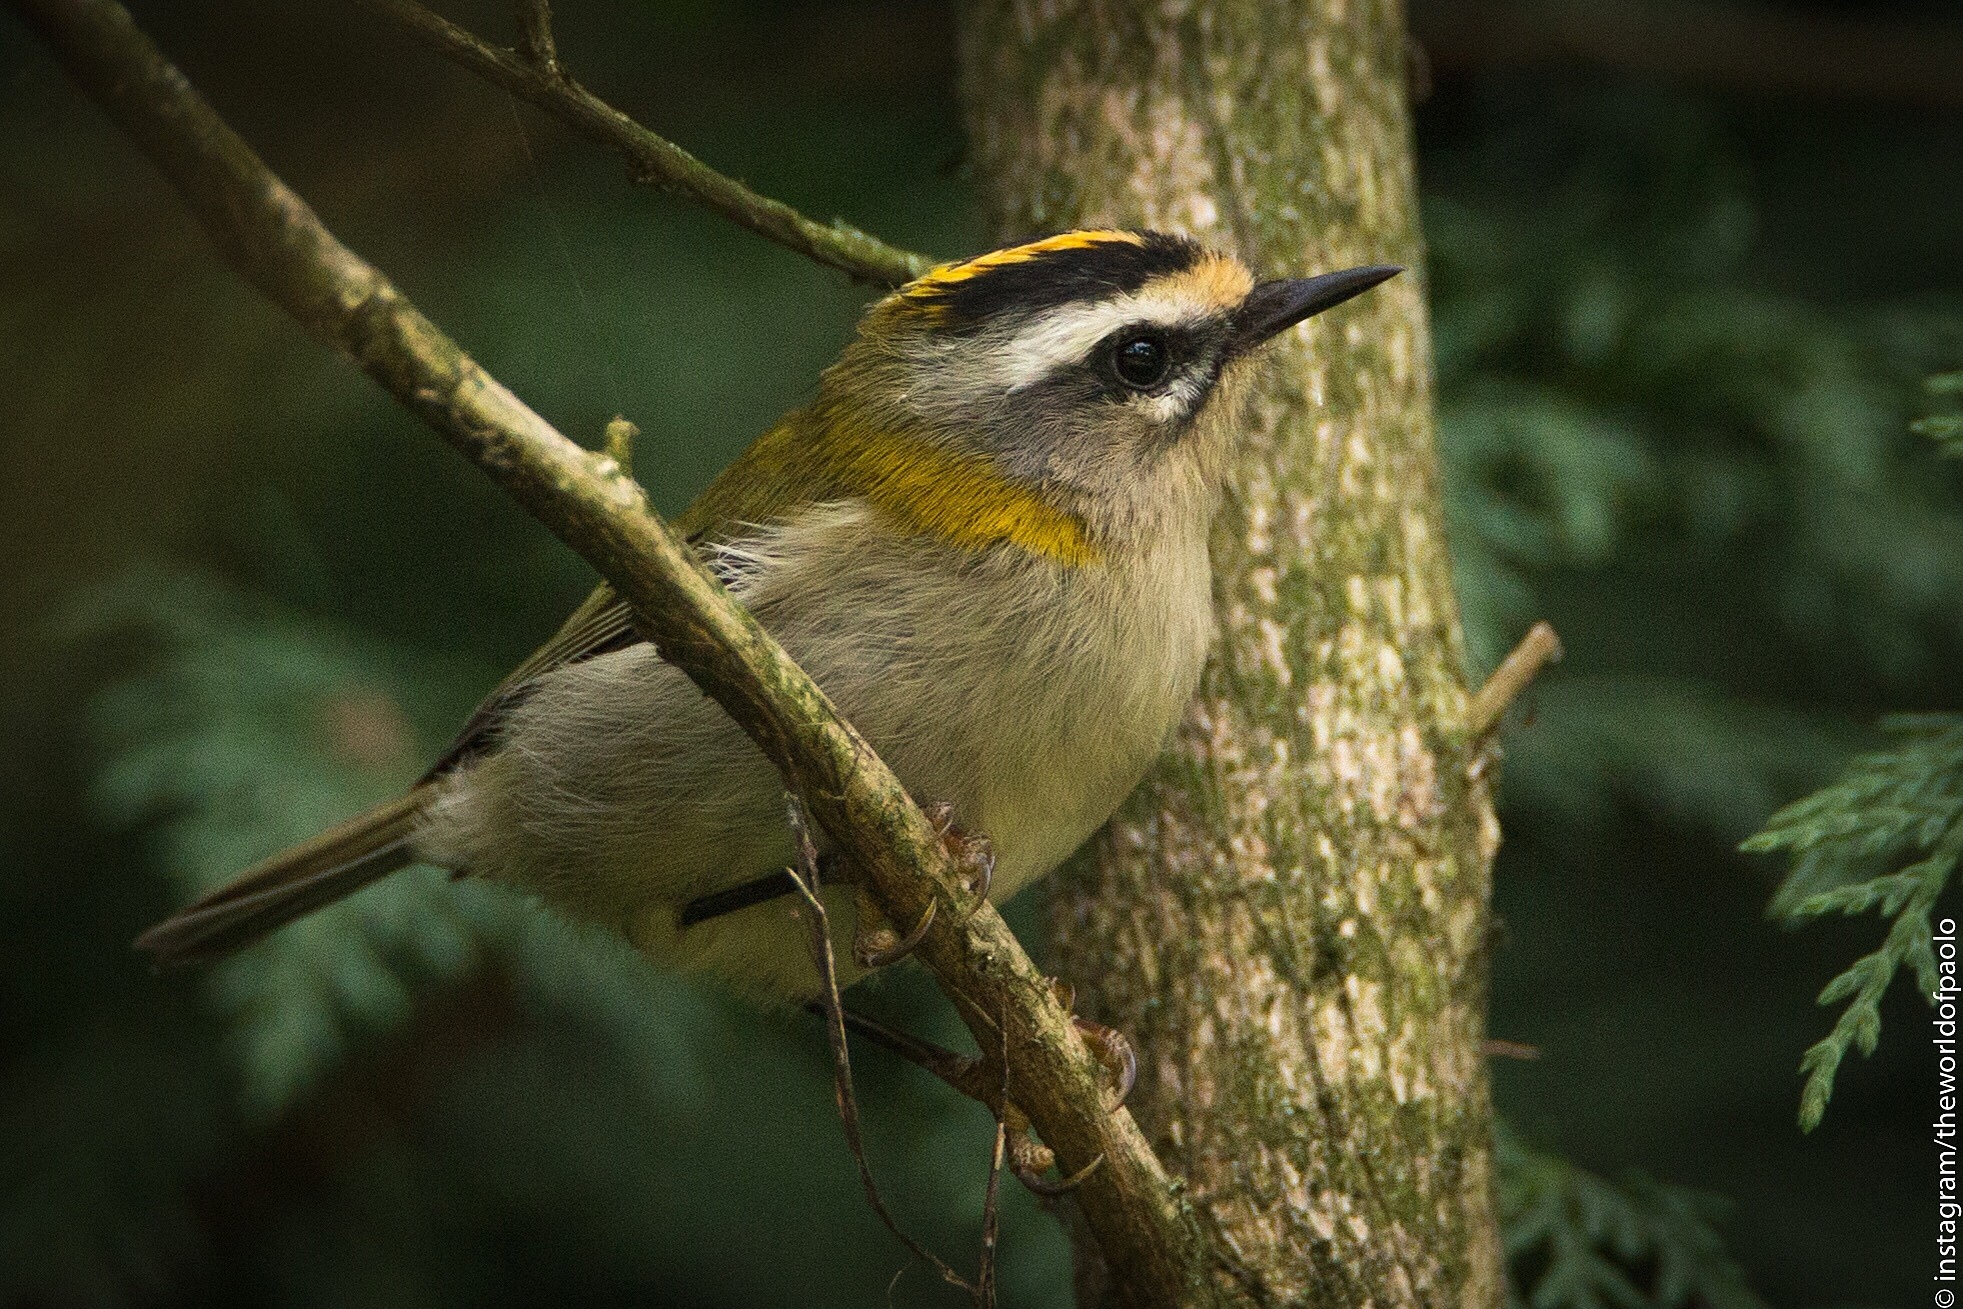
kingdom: Animalia
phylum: Chordata
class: Aves
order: Passeriformes
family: Regulidae
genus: Regulus
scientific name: Regulus ignicapilla
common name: Firecrest
